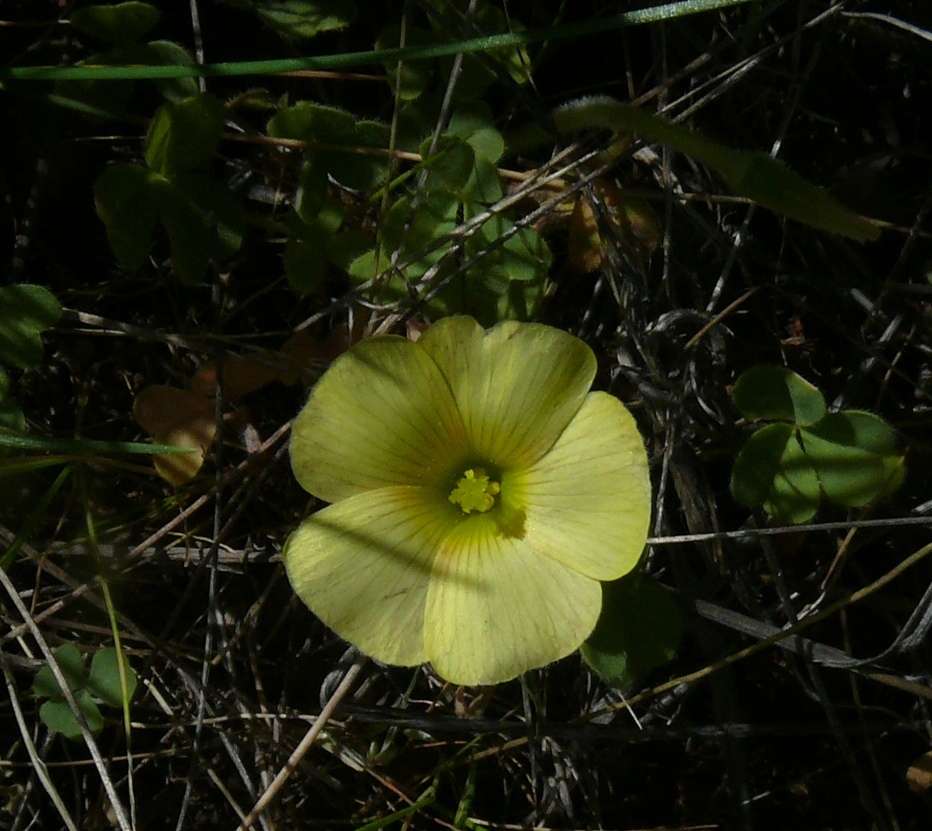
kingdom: Plantae
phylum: Tracheophyta
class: Magnoliopsida
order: Oxalidales
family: Oxalidaceae
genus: Oxalis
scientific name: Oxalis obtusa
